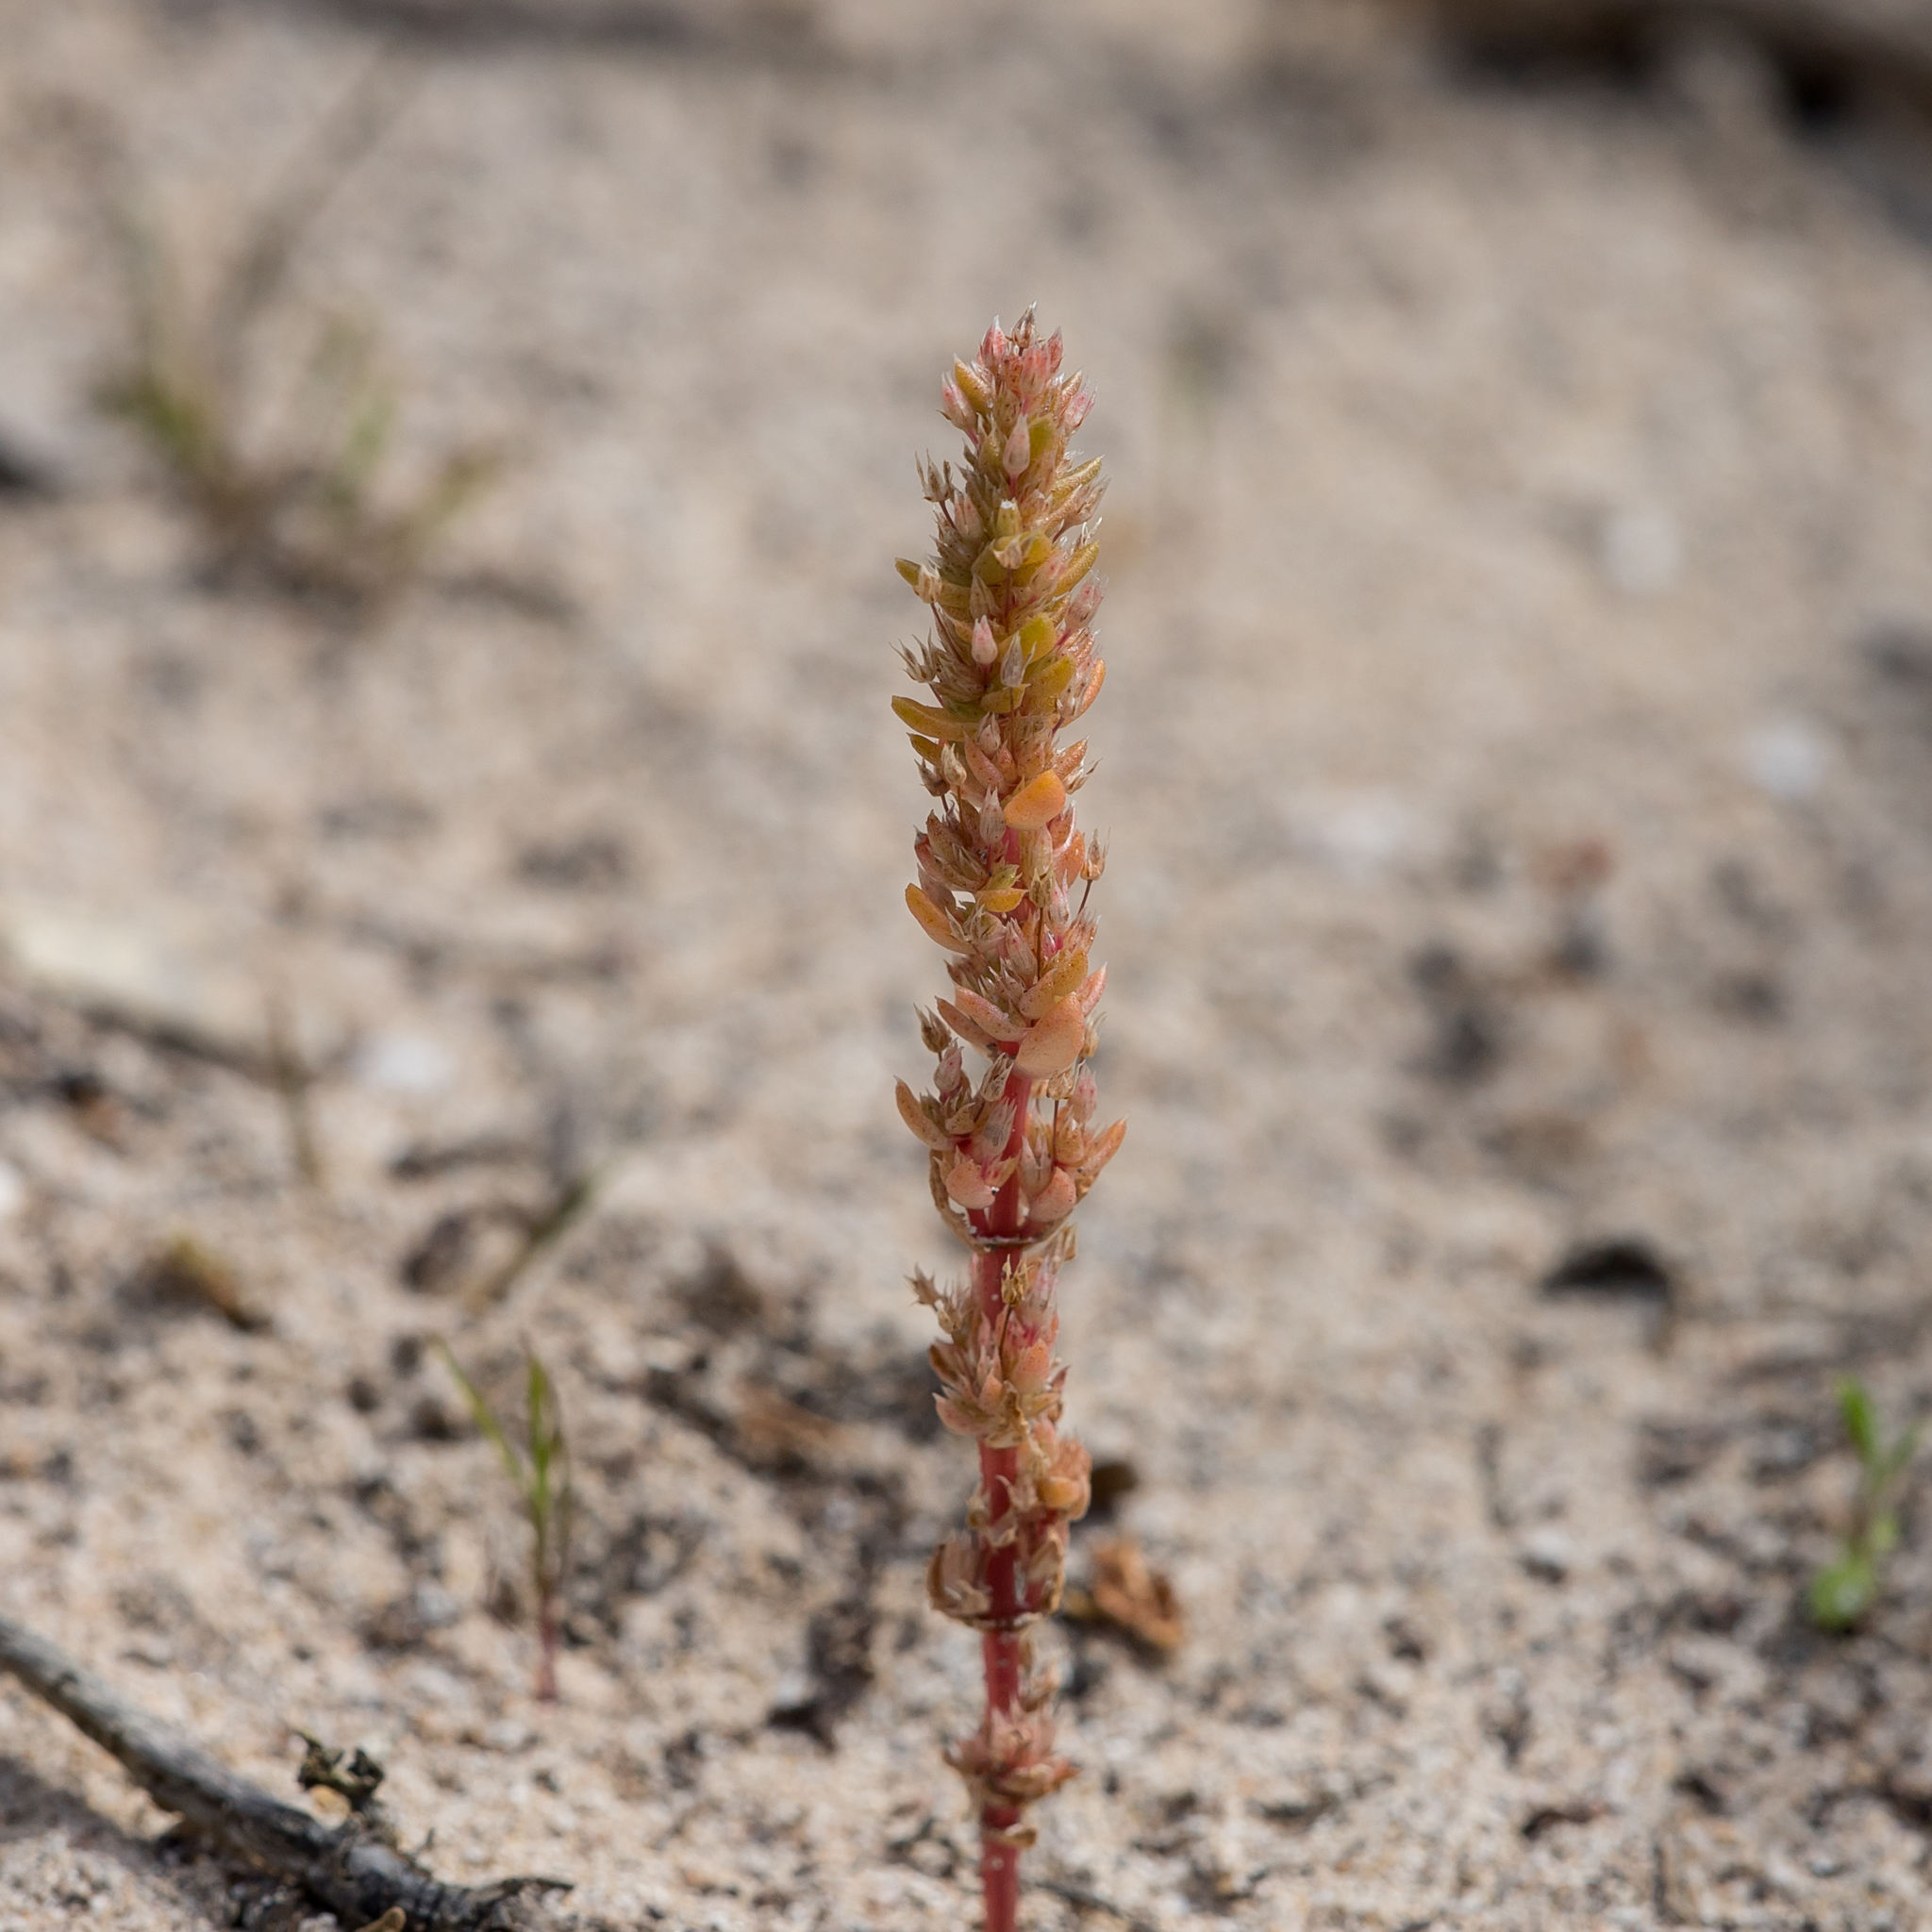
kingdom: Plantae
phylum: Tracheophyta
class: Magnoliopsida
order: Saxifragales
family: Crassulaceae
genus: Crassula
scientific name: Crassula colligata
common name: Pygmyweed
